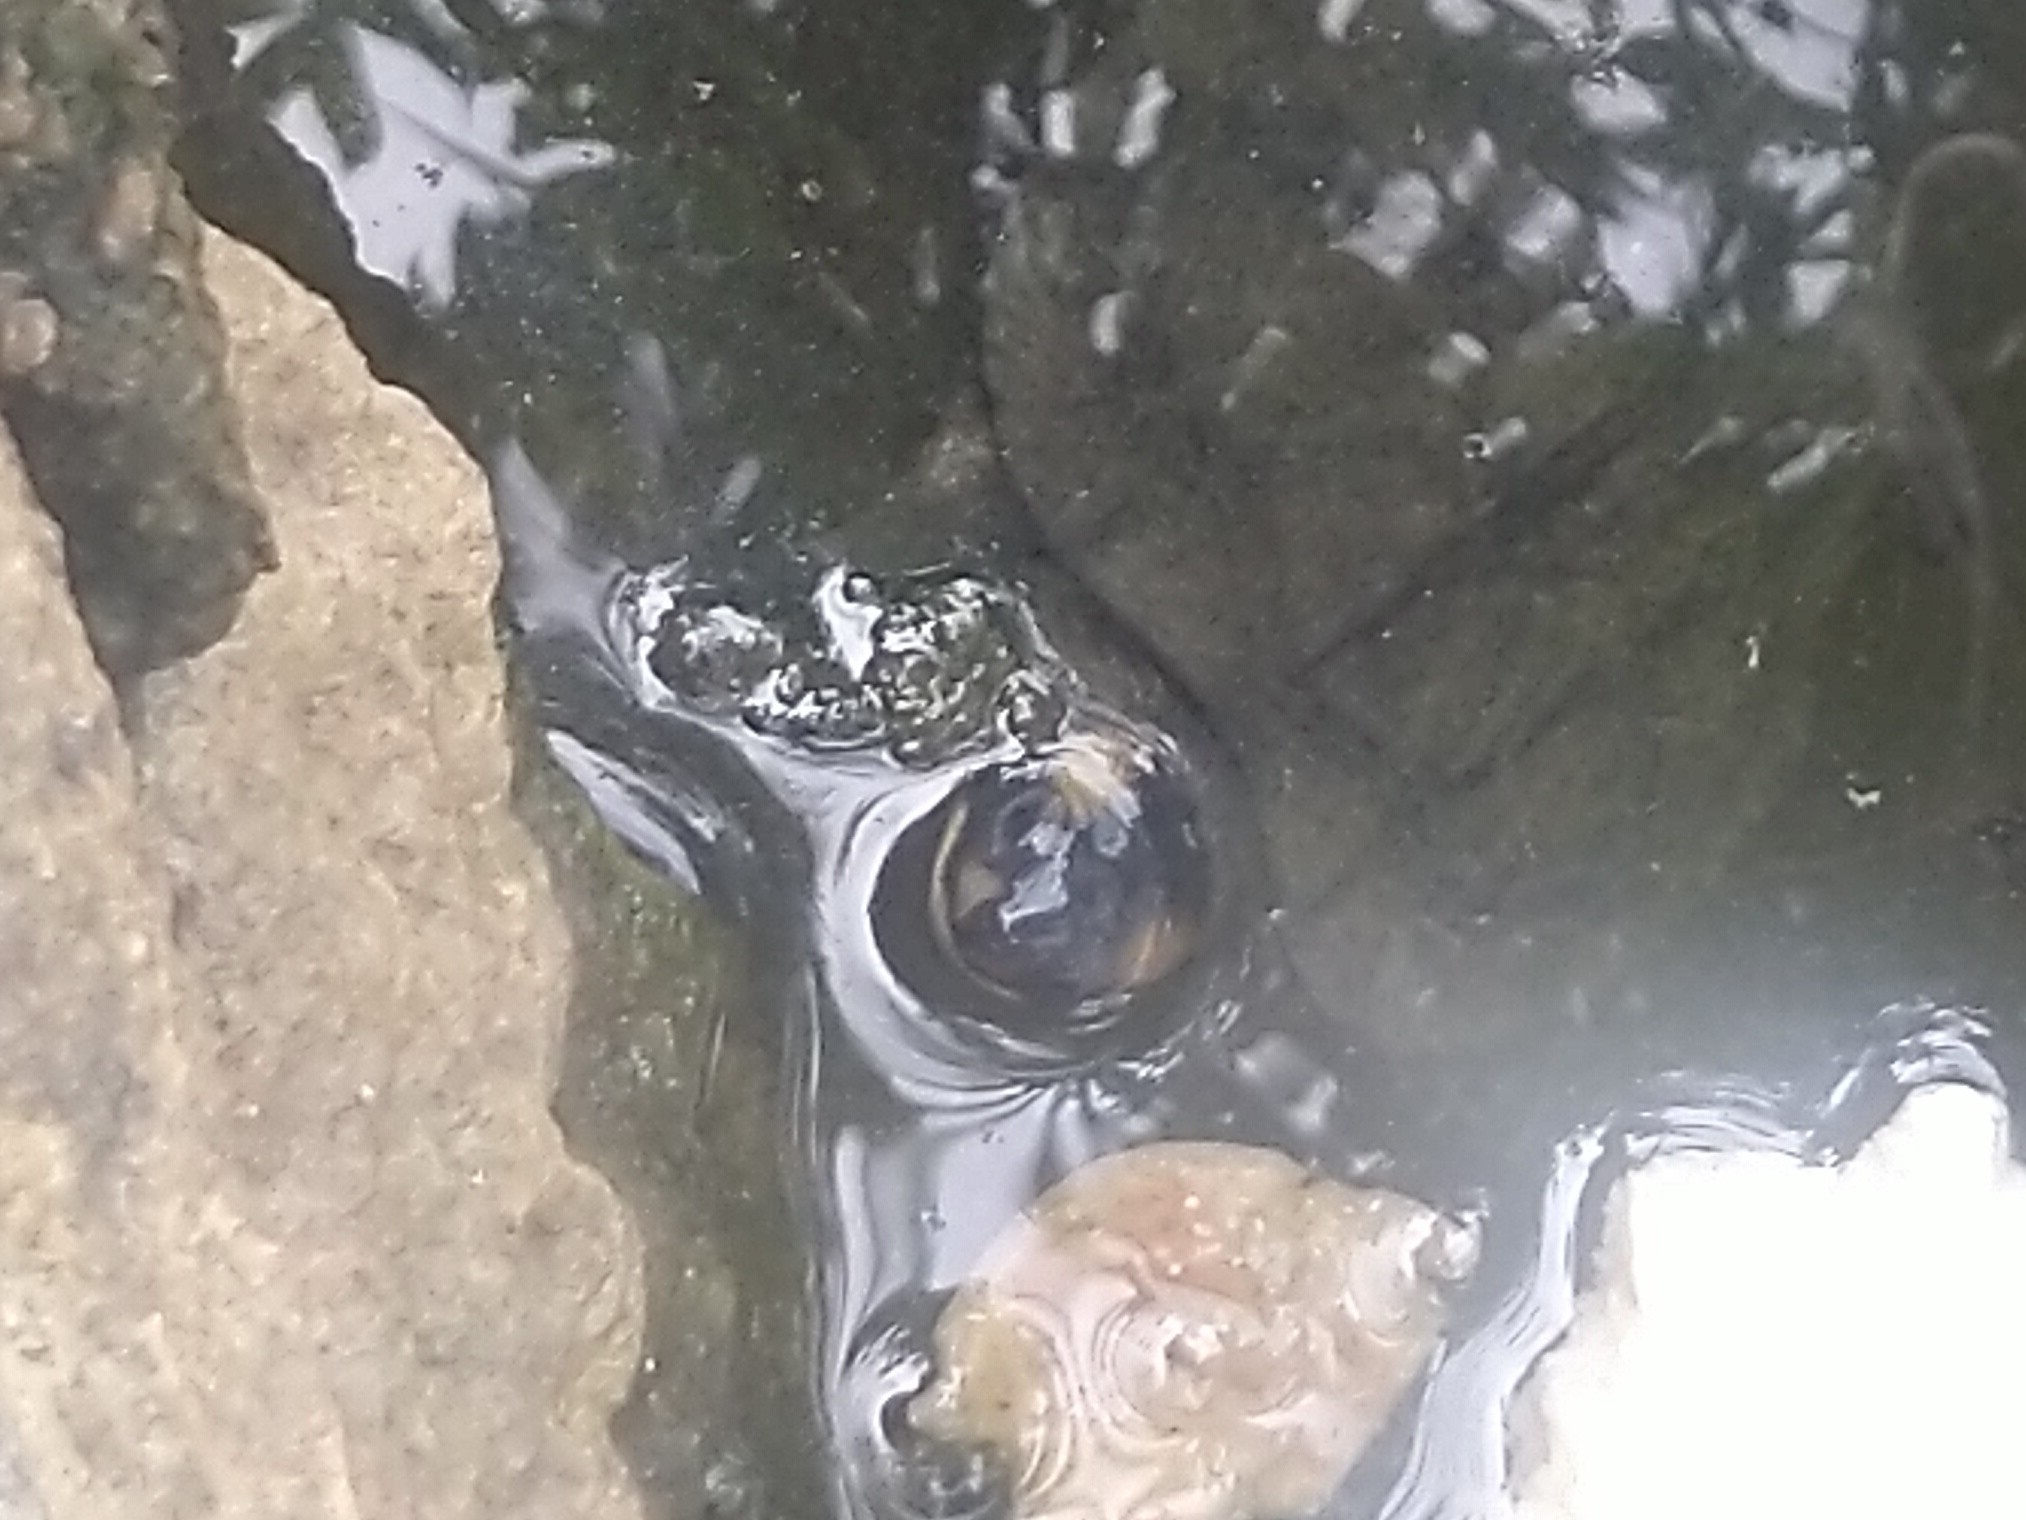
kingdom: Animalia
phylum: Chordata
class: Testudines
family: Geoemydidae
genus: Melanochelys
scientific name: Melanochelys trijuga
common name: Indian black turtle
